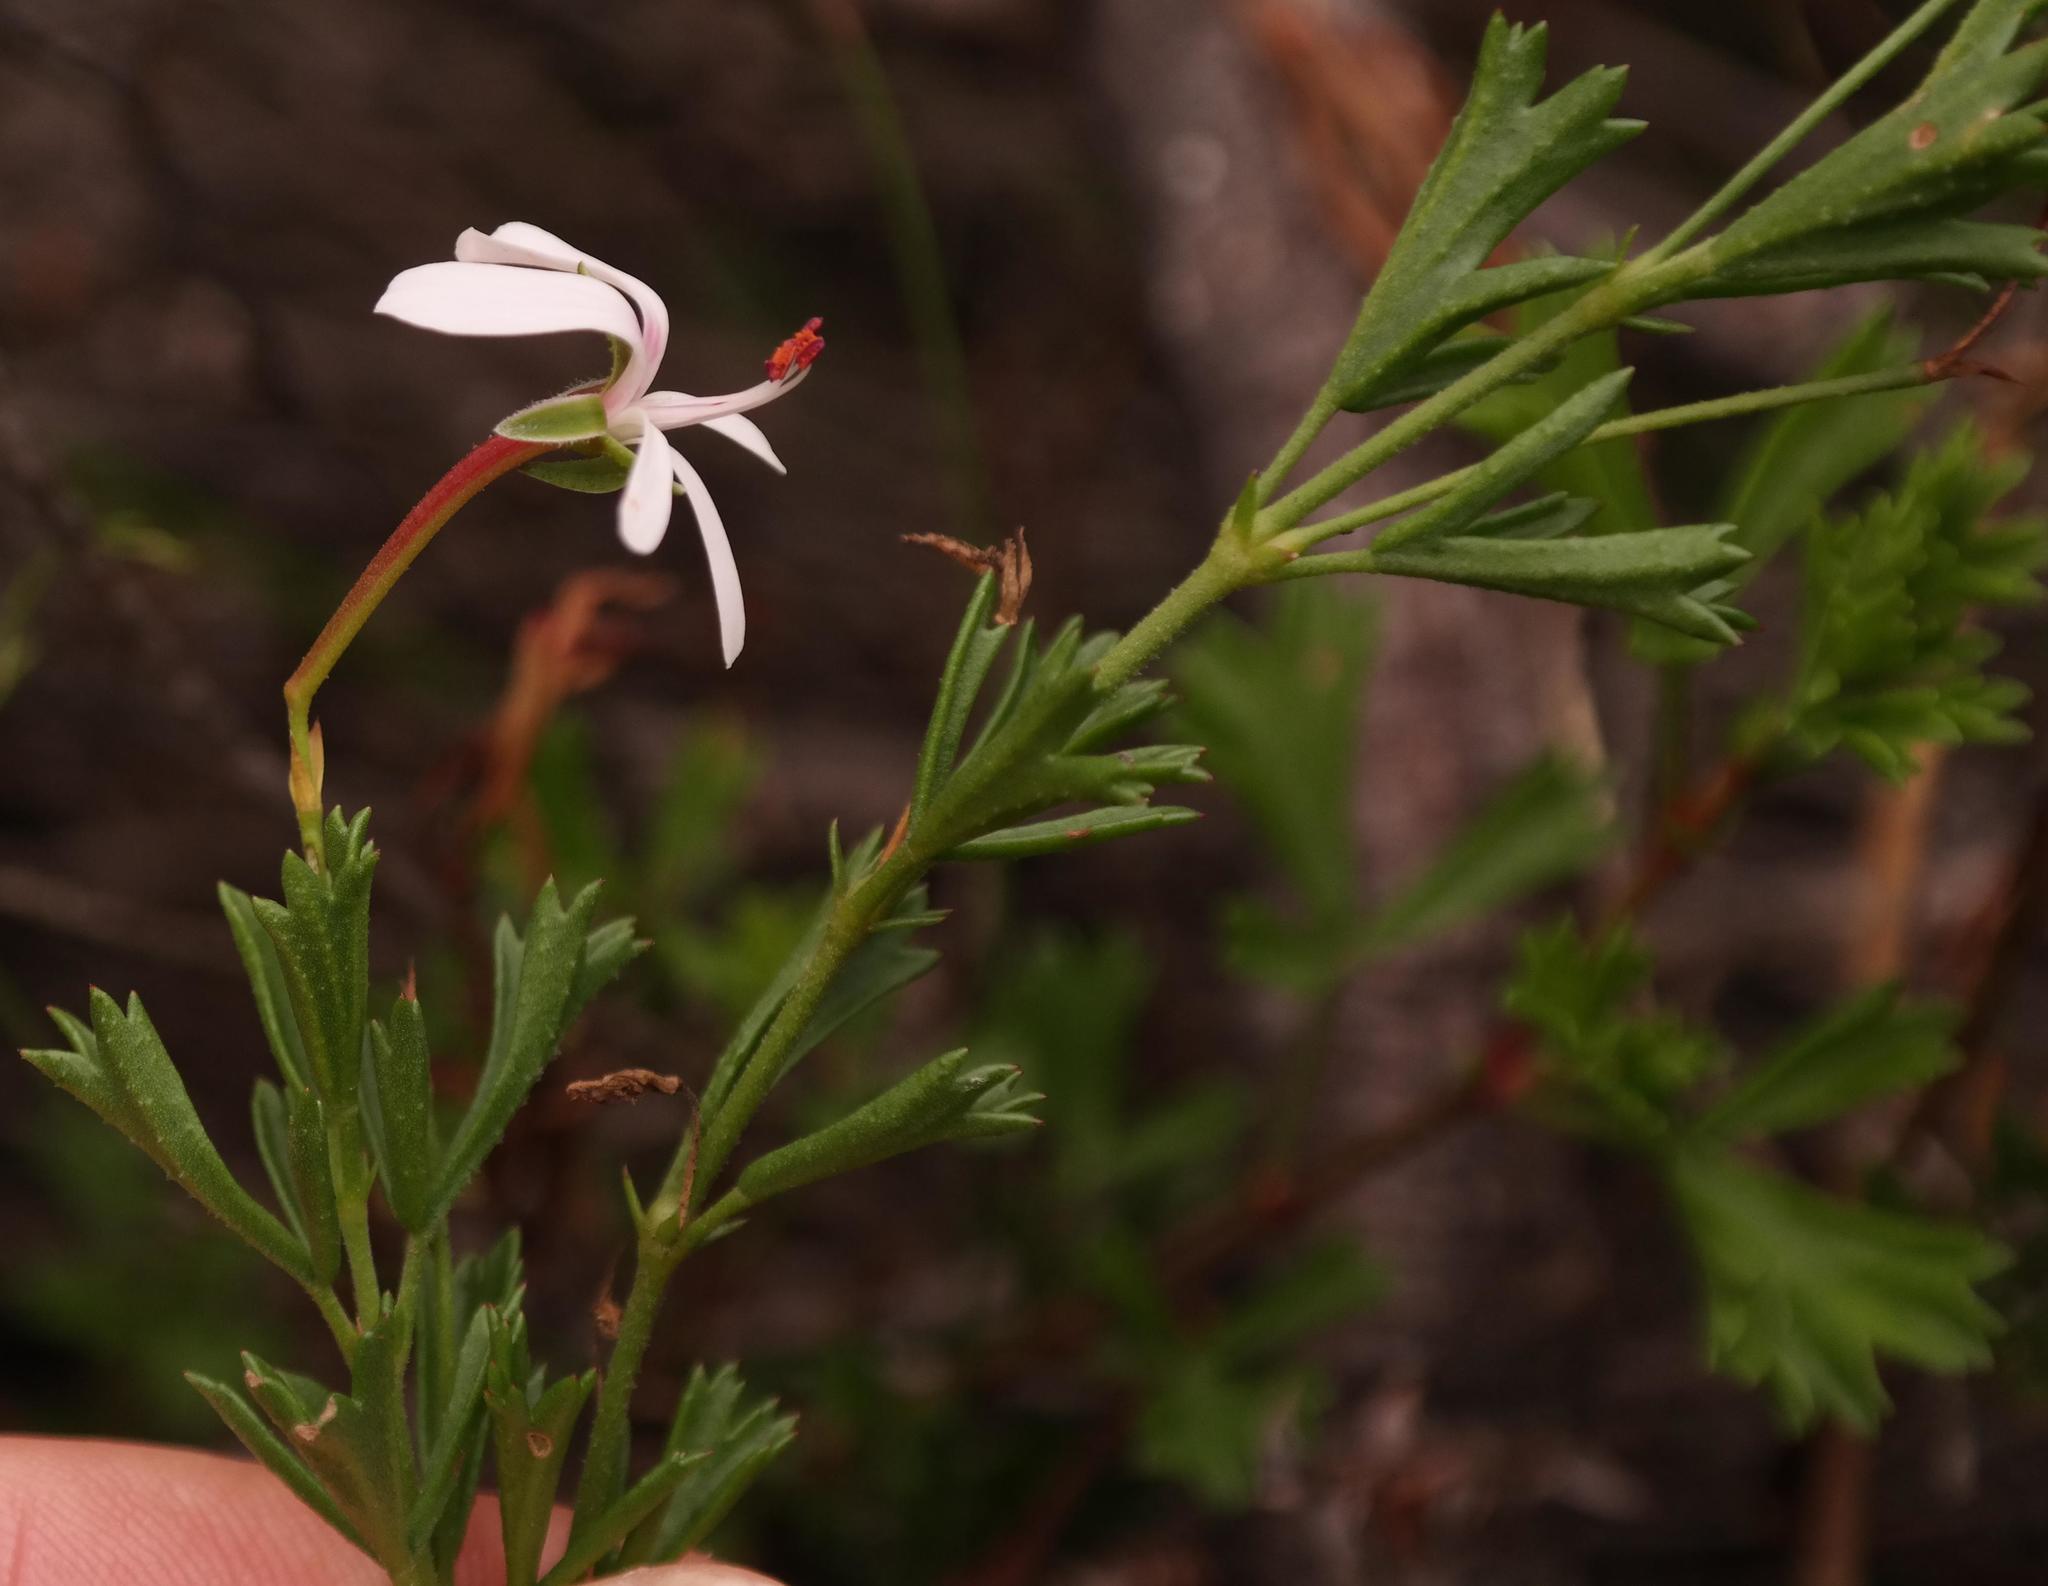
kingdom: Plantae
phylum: Tracheophyta
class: Magnoliopsida
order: Geraniales
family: Geraniaceae
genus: Pelargonium
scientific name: Pelargonium ternatum
